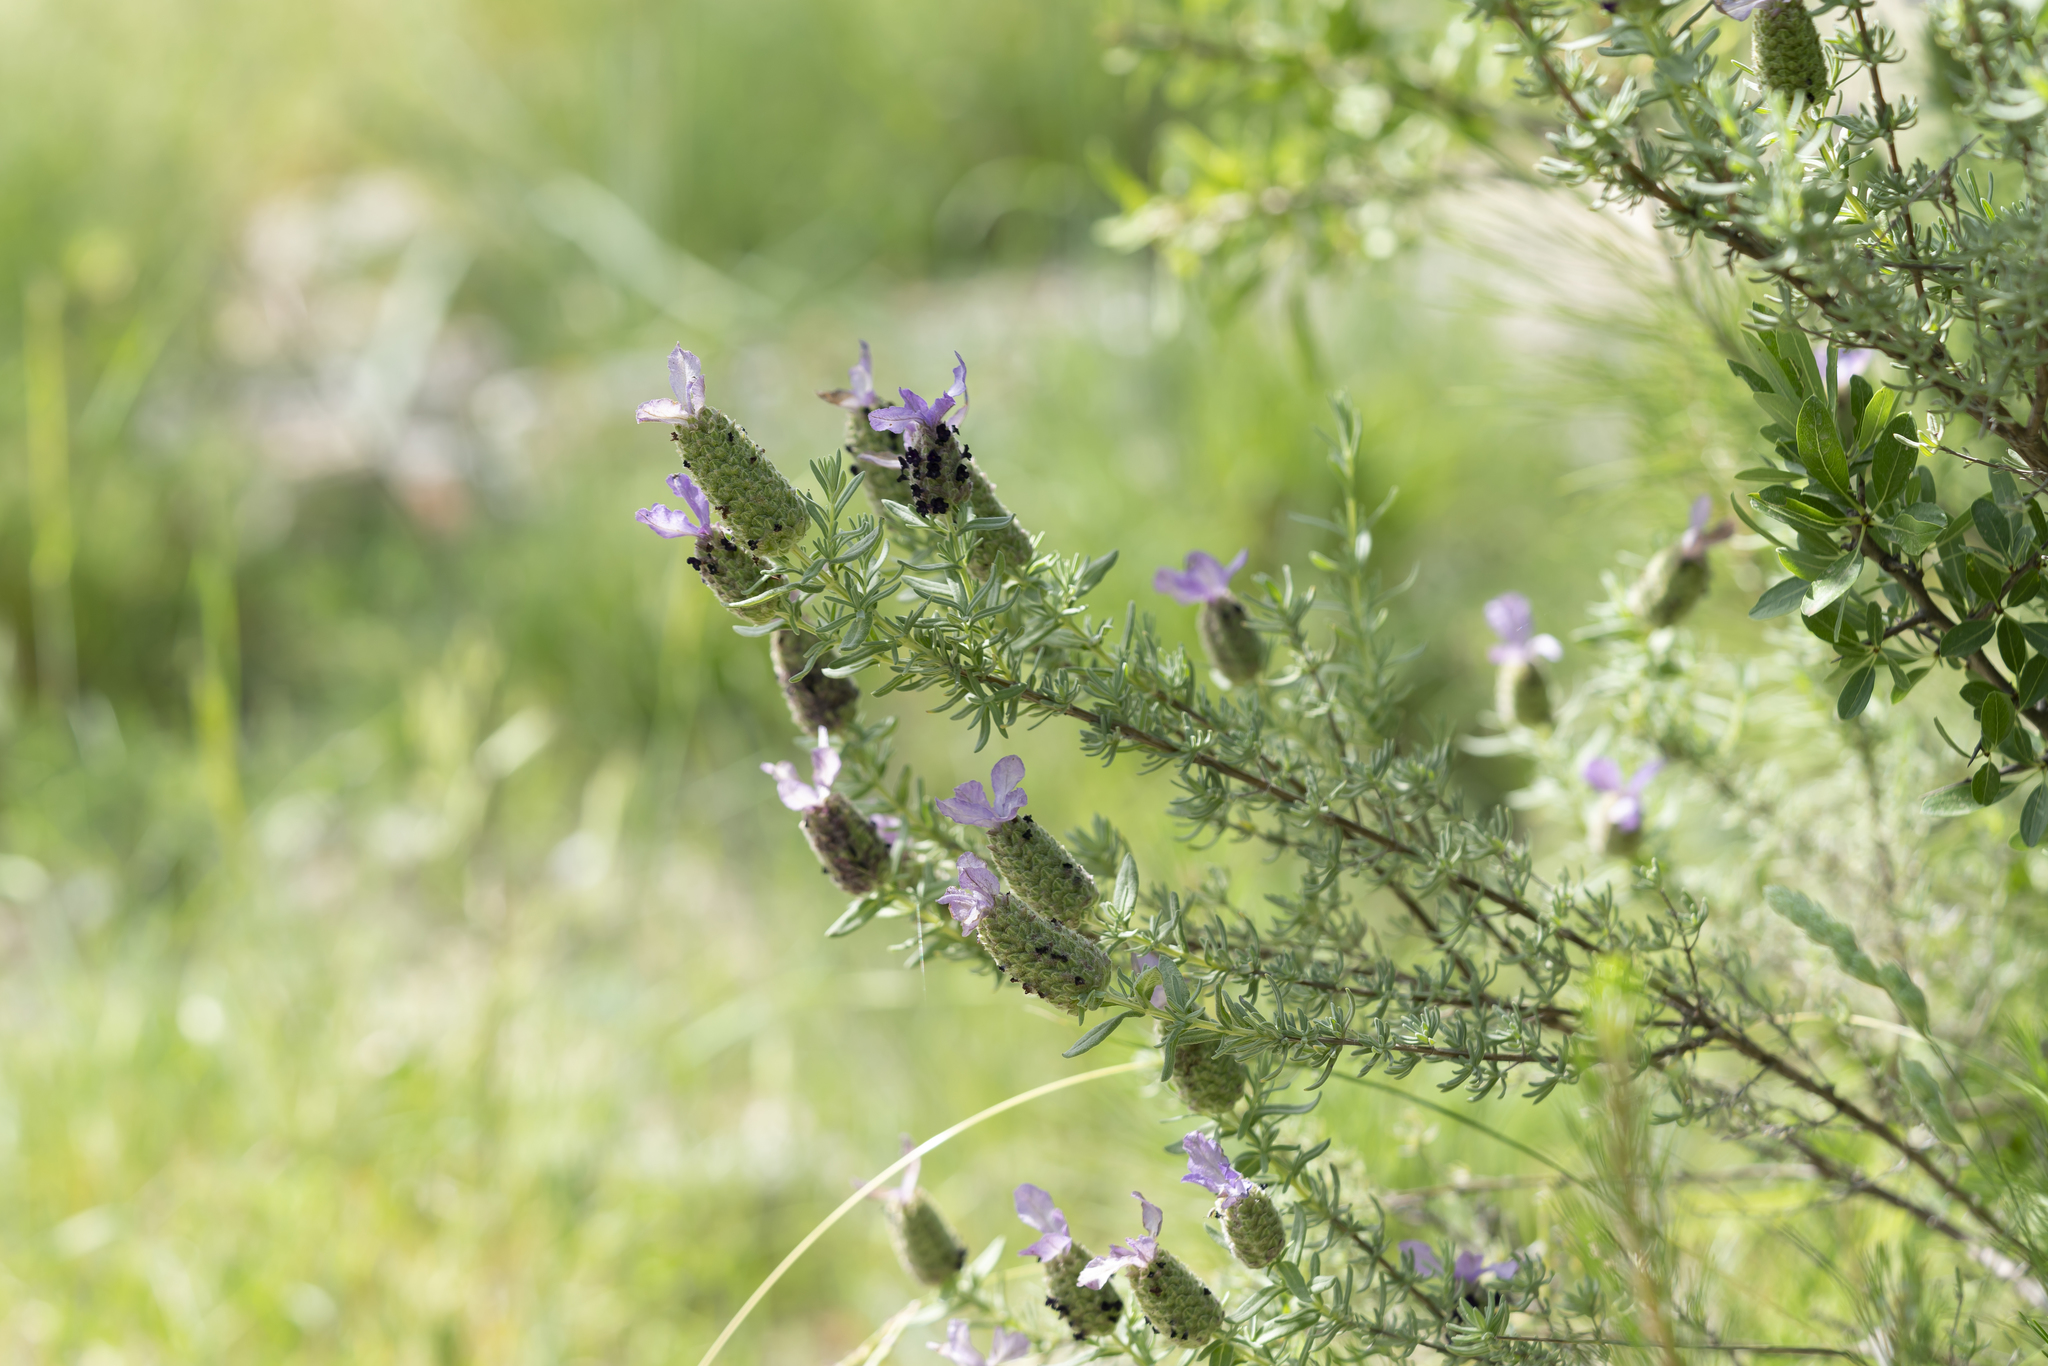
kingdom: Plantae
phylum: Tracheophyta
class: Magnoliopsida
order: Lamiales
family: Lamiaceae
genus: Lavandula
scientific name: Lavandula stoechas
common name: French lavender
